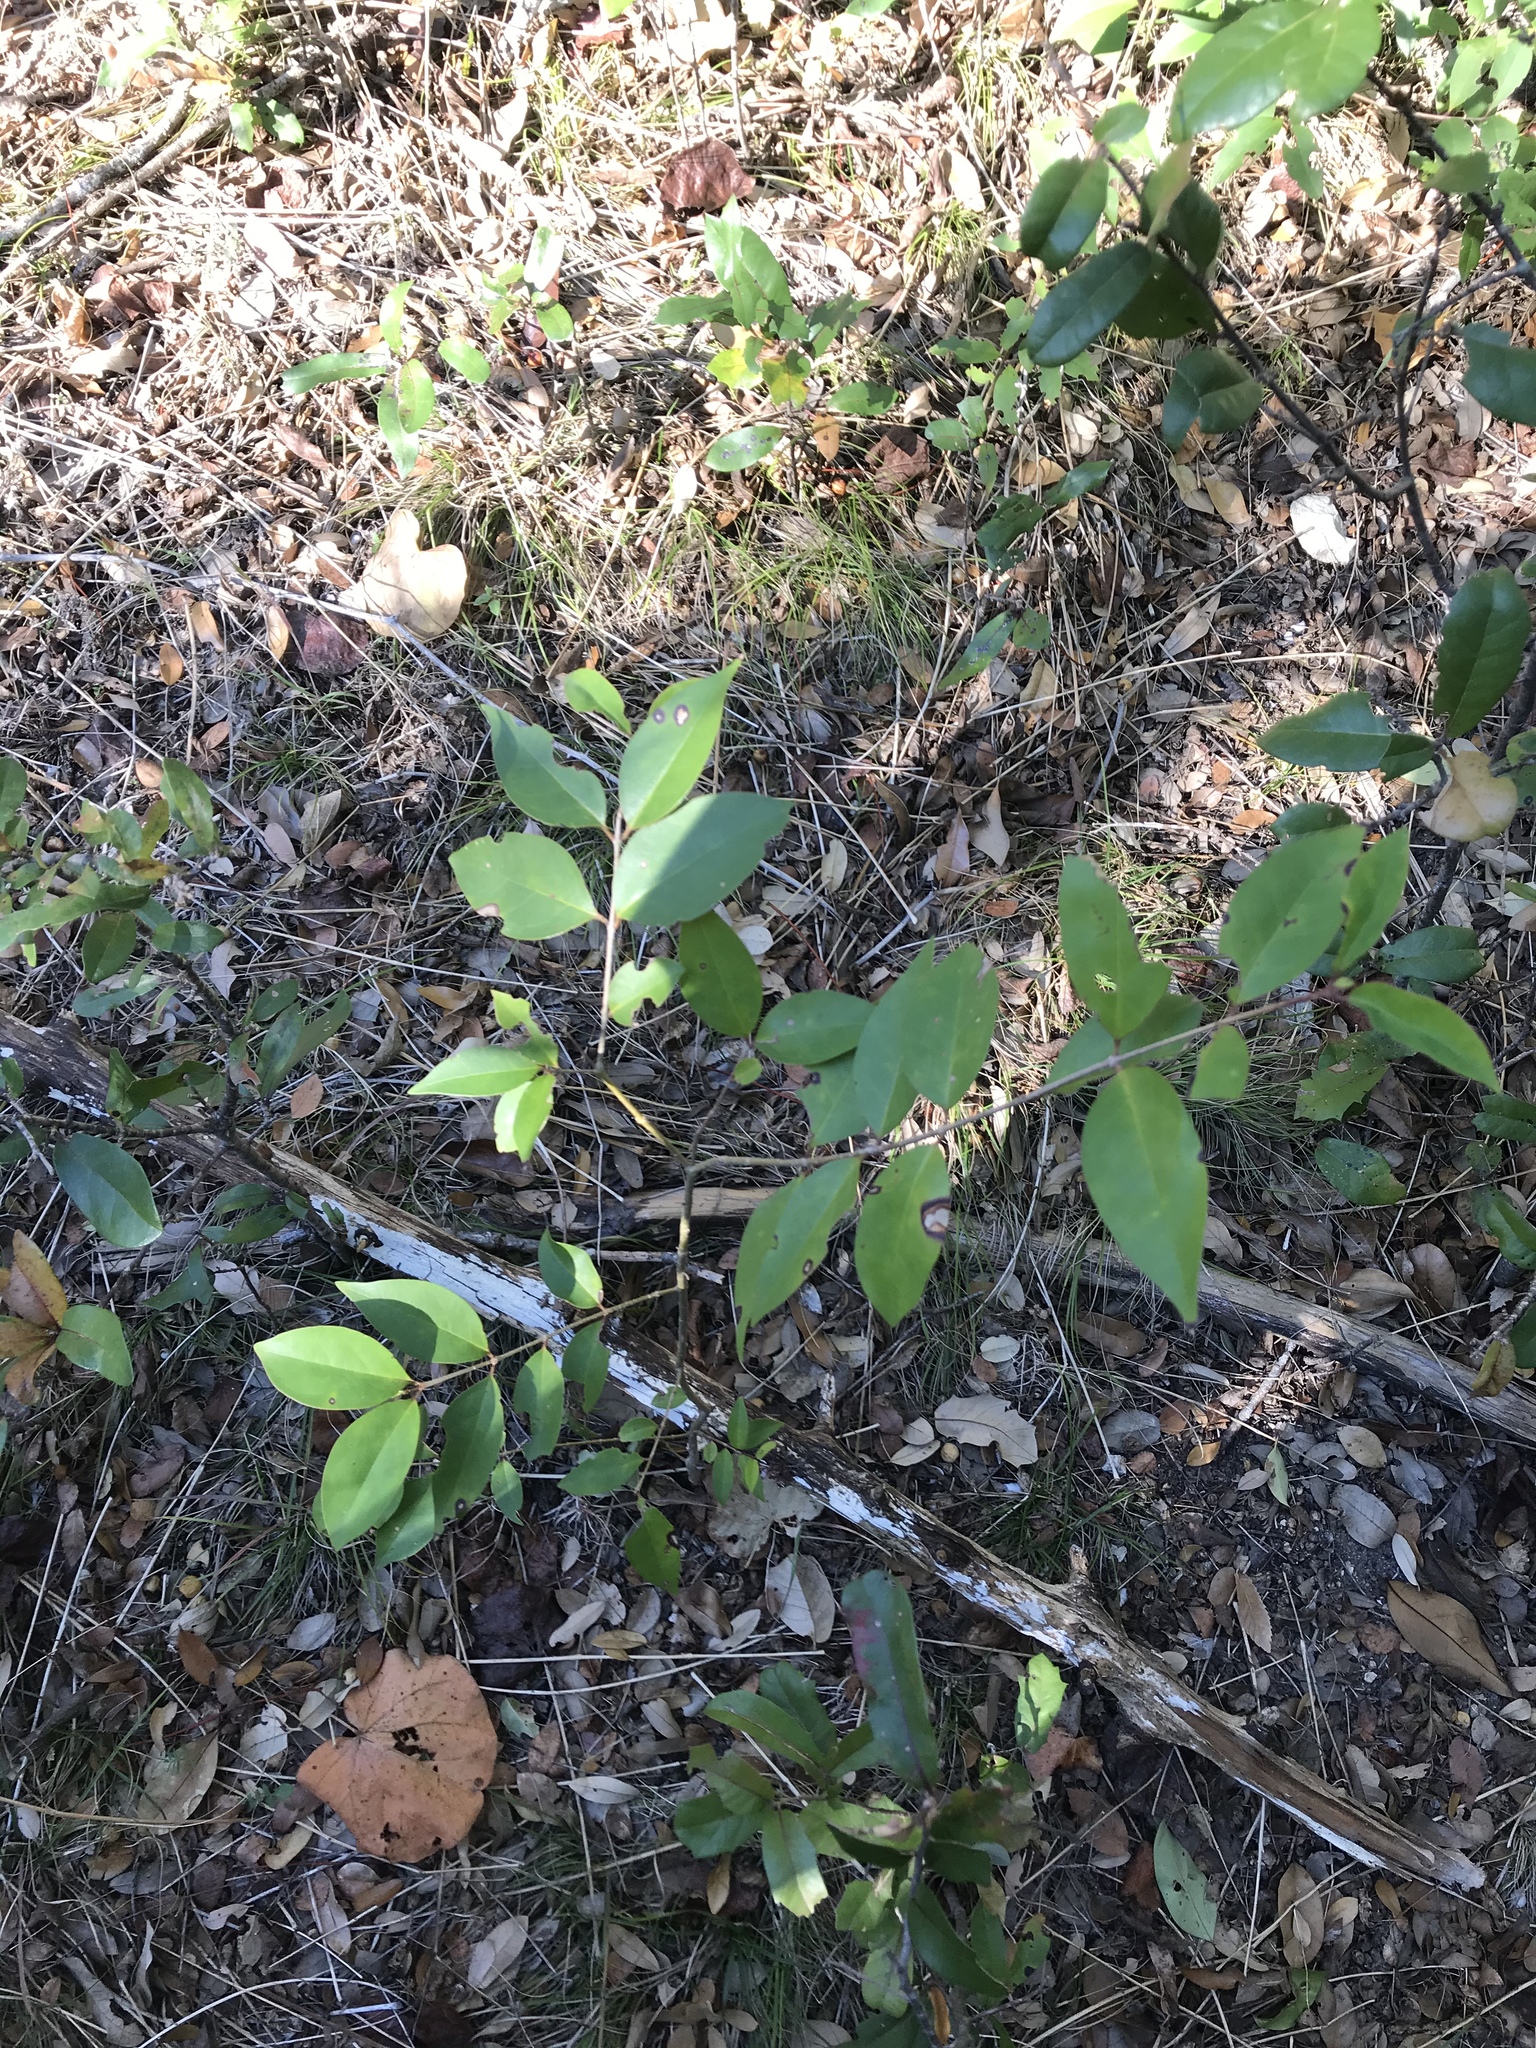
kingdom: Plantae
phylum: Tracheophyta
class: Magnoliopsida
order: Lamiales
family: Oleaceae
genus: Ligustrum
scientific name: Ligustrum lucidum
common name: Glossy privet
